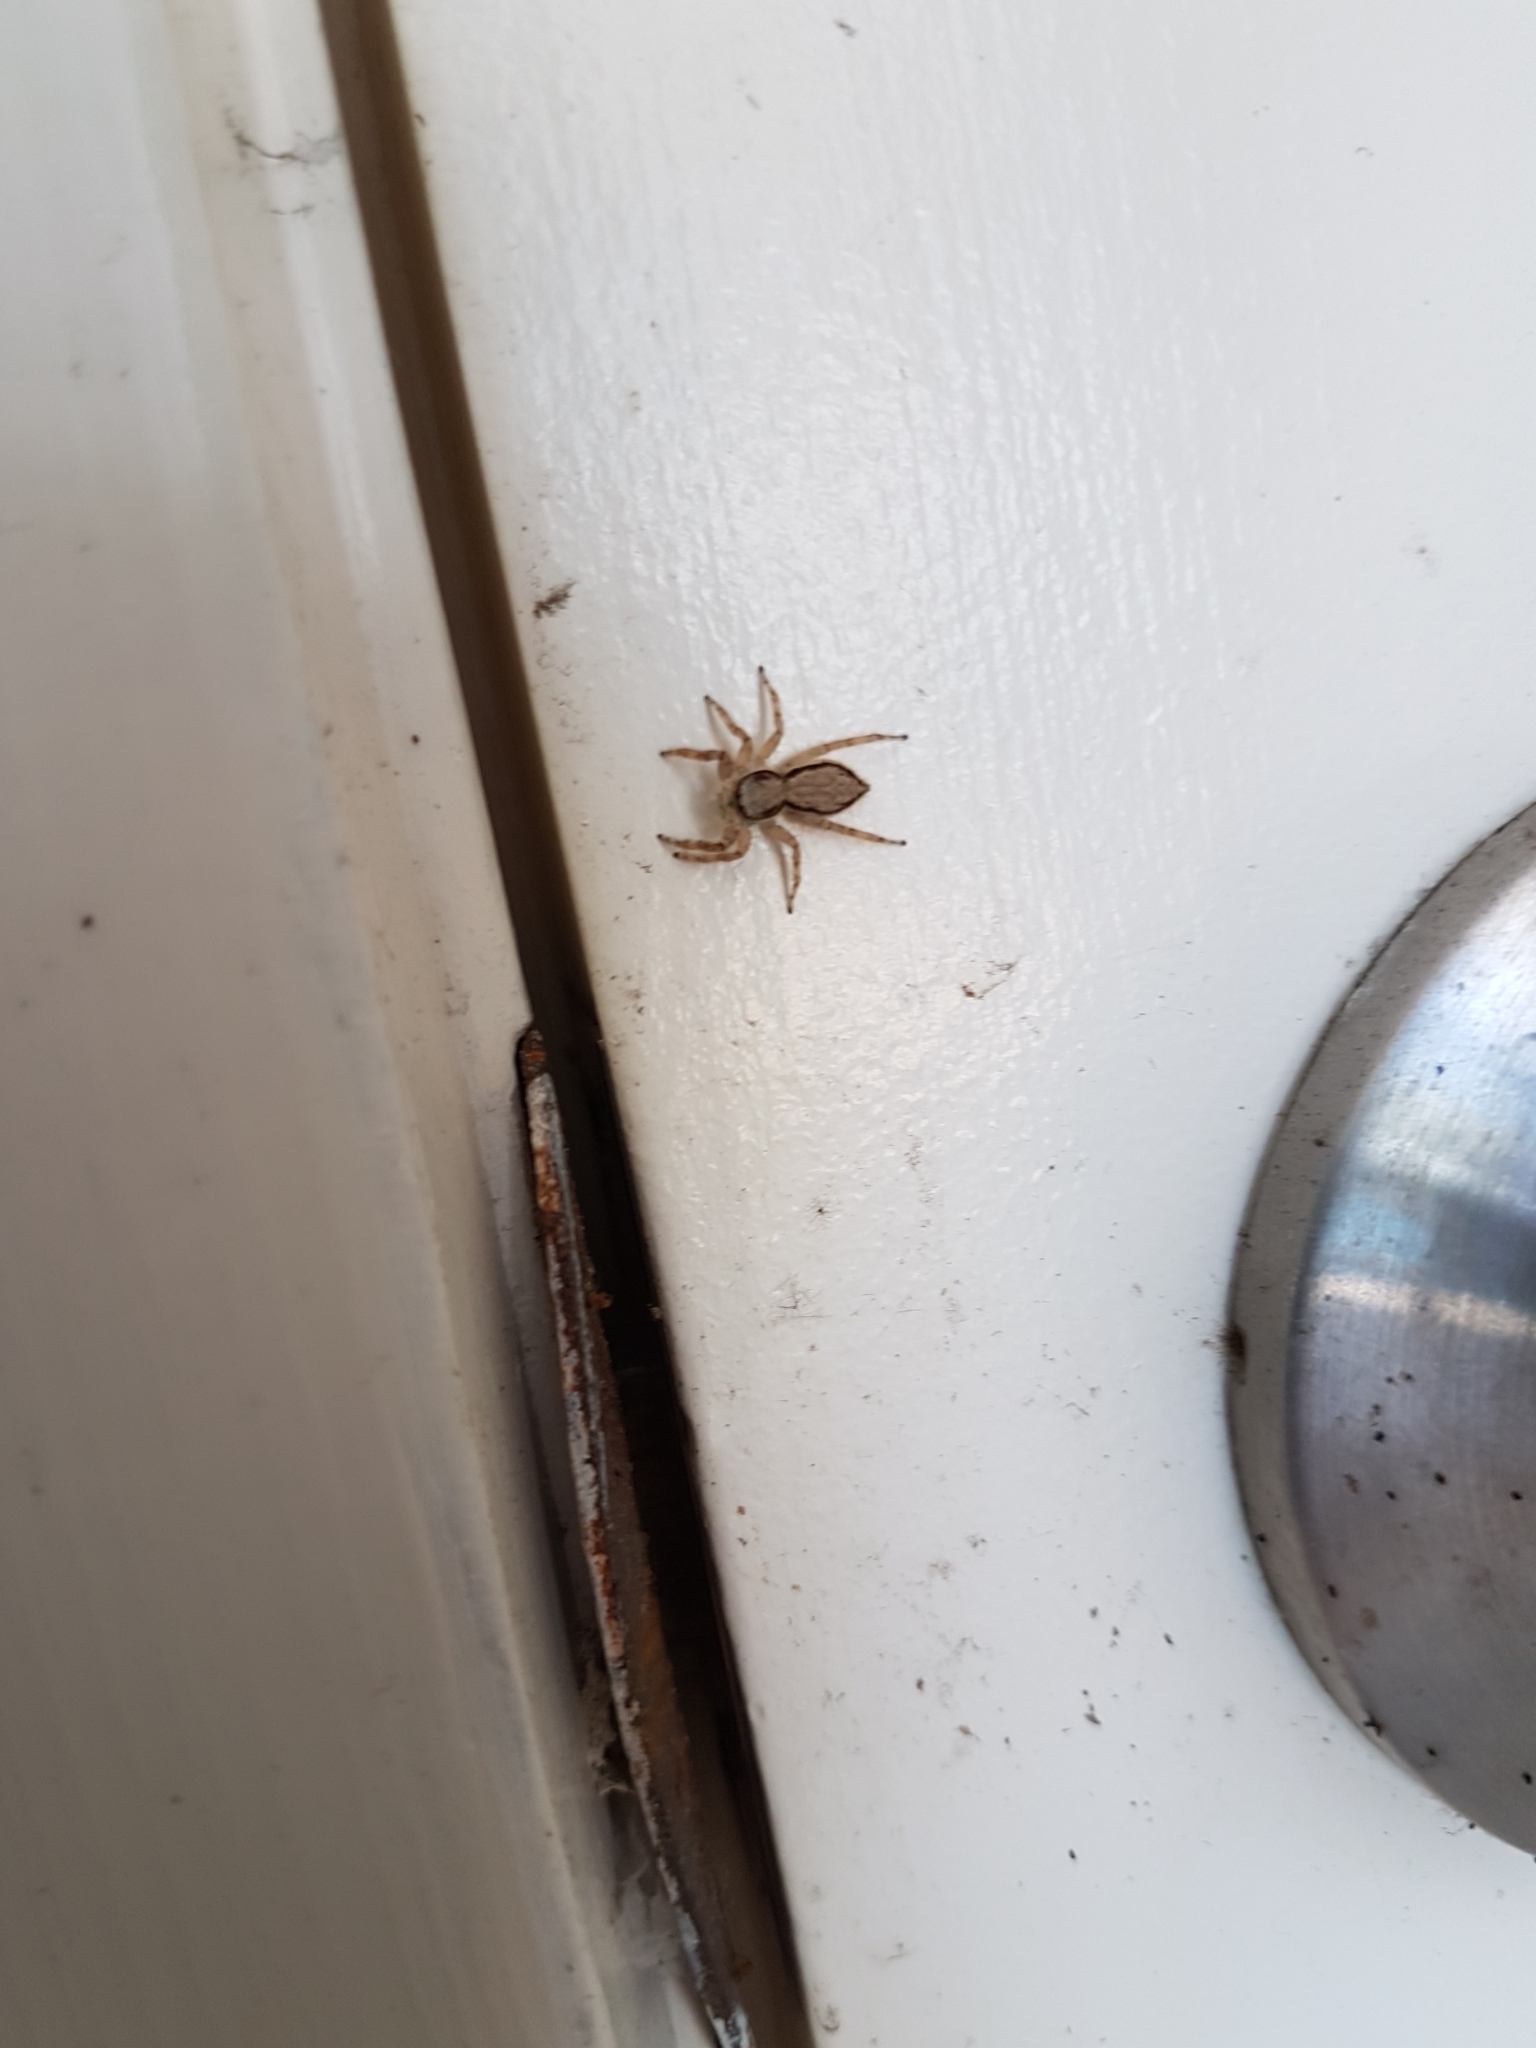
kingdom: Animalia
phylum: Arthropoda
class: Arachnida
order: Araneae
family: Salticidae
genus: Menemerus
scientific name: Menemerus bivittatus
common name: Gray wall jumper
